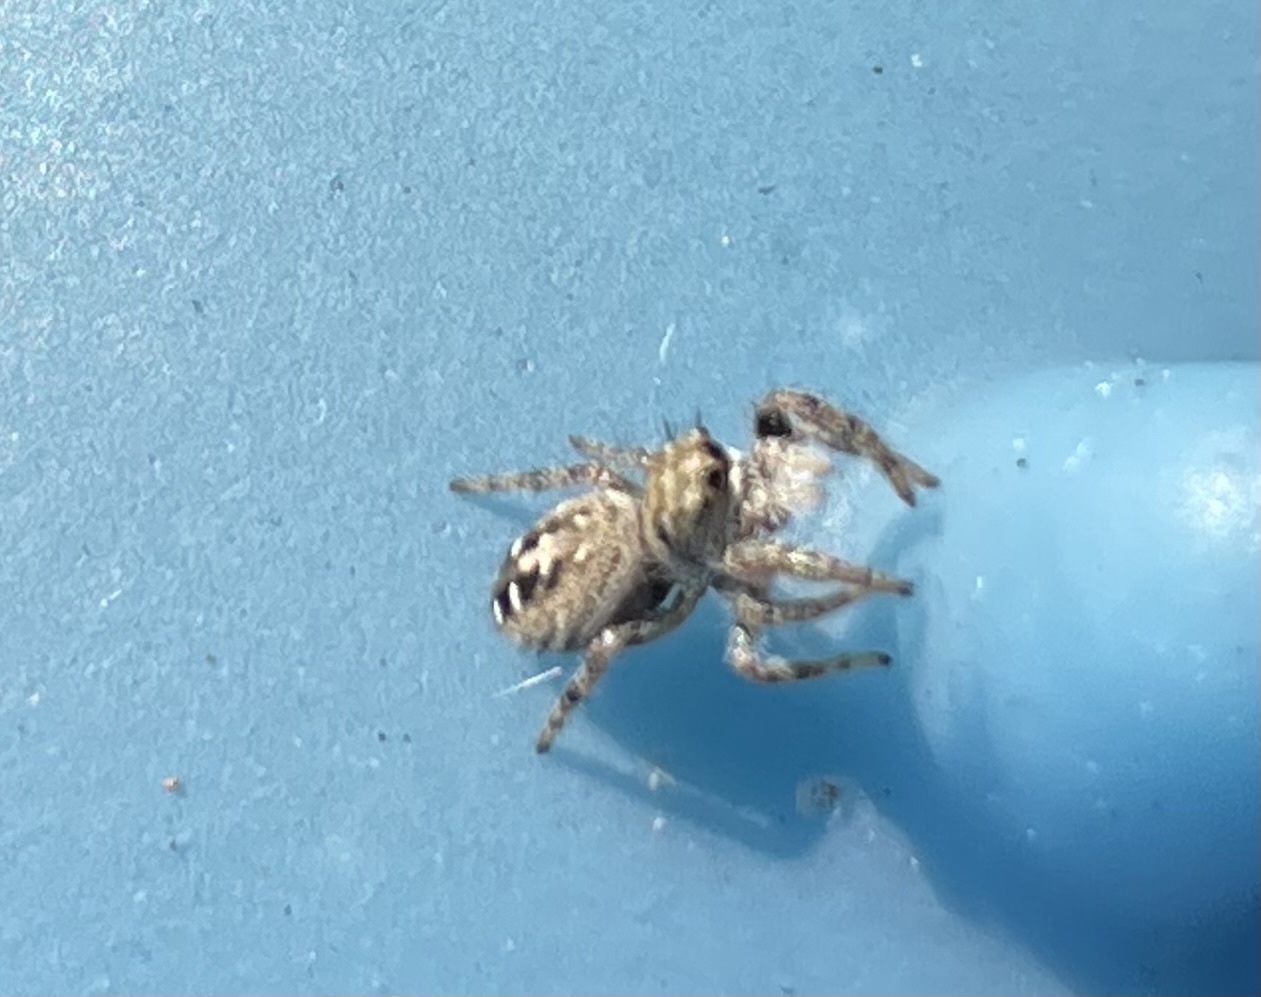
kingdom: Animalia
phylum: Arthropoda
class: Arachnida
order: Araneae
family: Salticidae
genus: Phidippus
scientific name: Phidippus texanus
